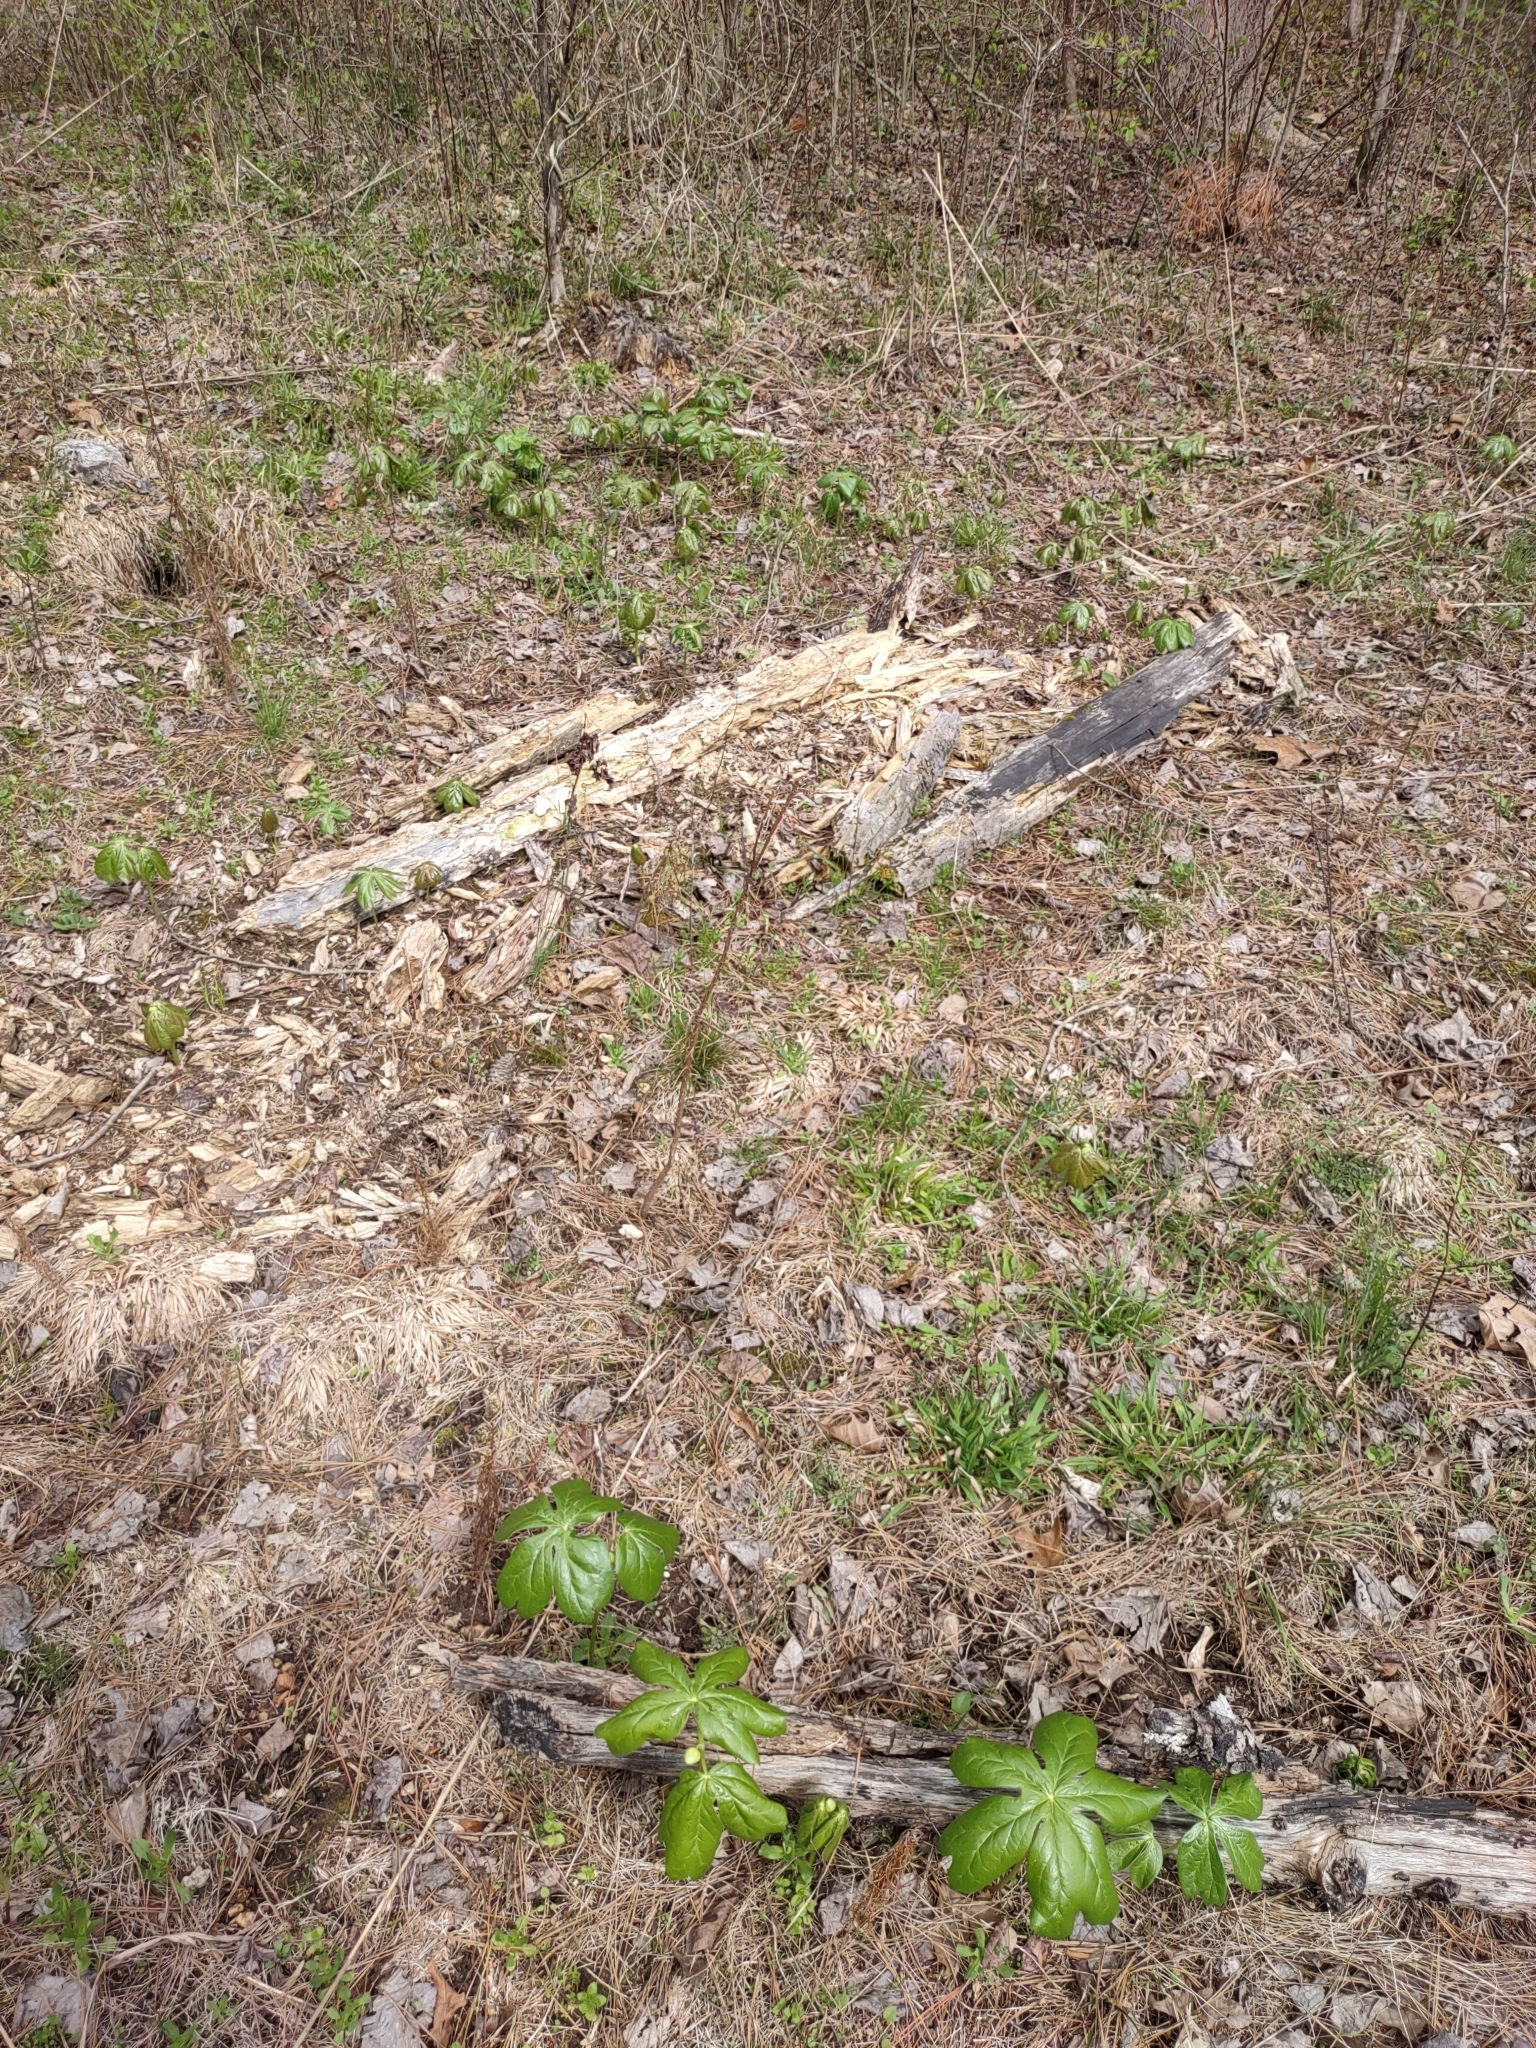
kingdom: Plantae
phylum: Tracheophyta
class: Magnoliopsida
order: Ranunculales
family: Berberidaceae
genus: Podophyllum
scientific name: Podophyllum peltatum
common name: Wild mandrake
